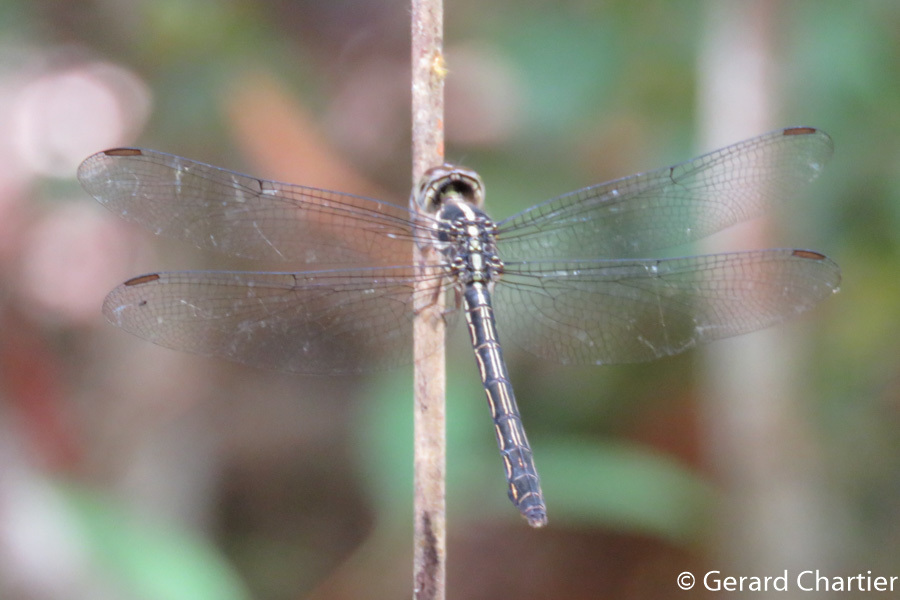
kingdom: Animalia
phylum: Arthropoda
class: Insecta
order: Odonata
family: Libellulidae
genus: Cratilla
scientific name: Cratilla lineata
